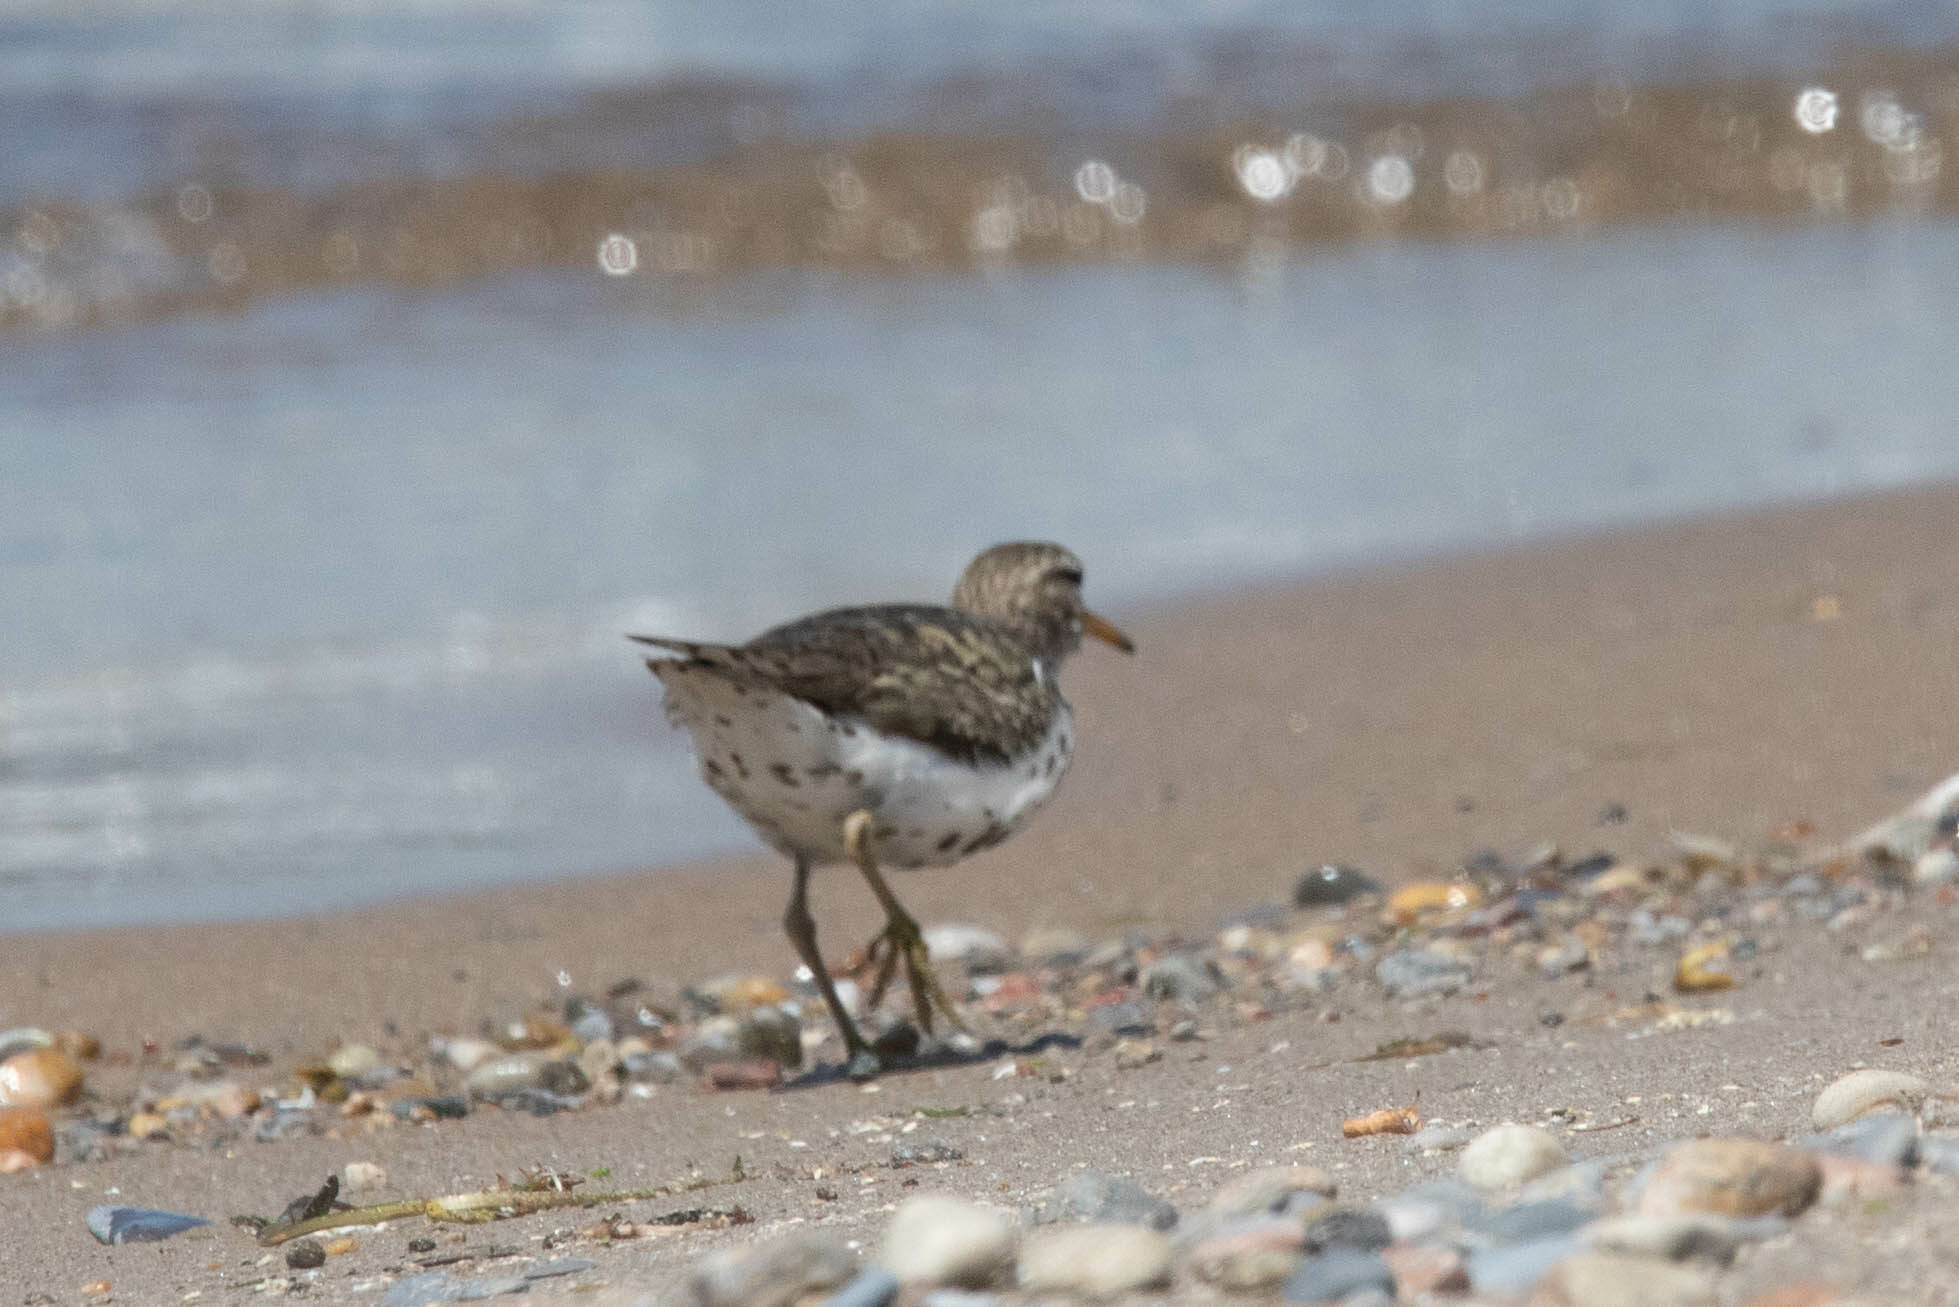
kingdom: Animalia
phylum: Chordata
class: Aves
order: Charadriiformes
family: Scolopacidae
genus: Actitis
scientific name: Actitis macularius
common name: Spotted sandpiper
